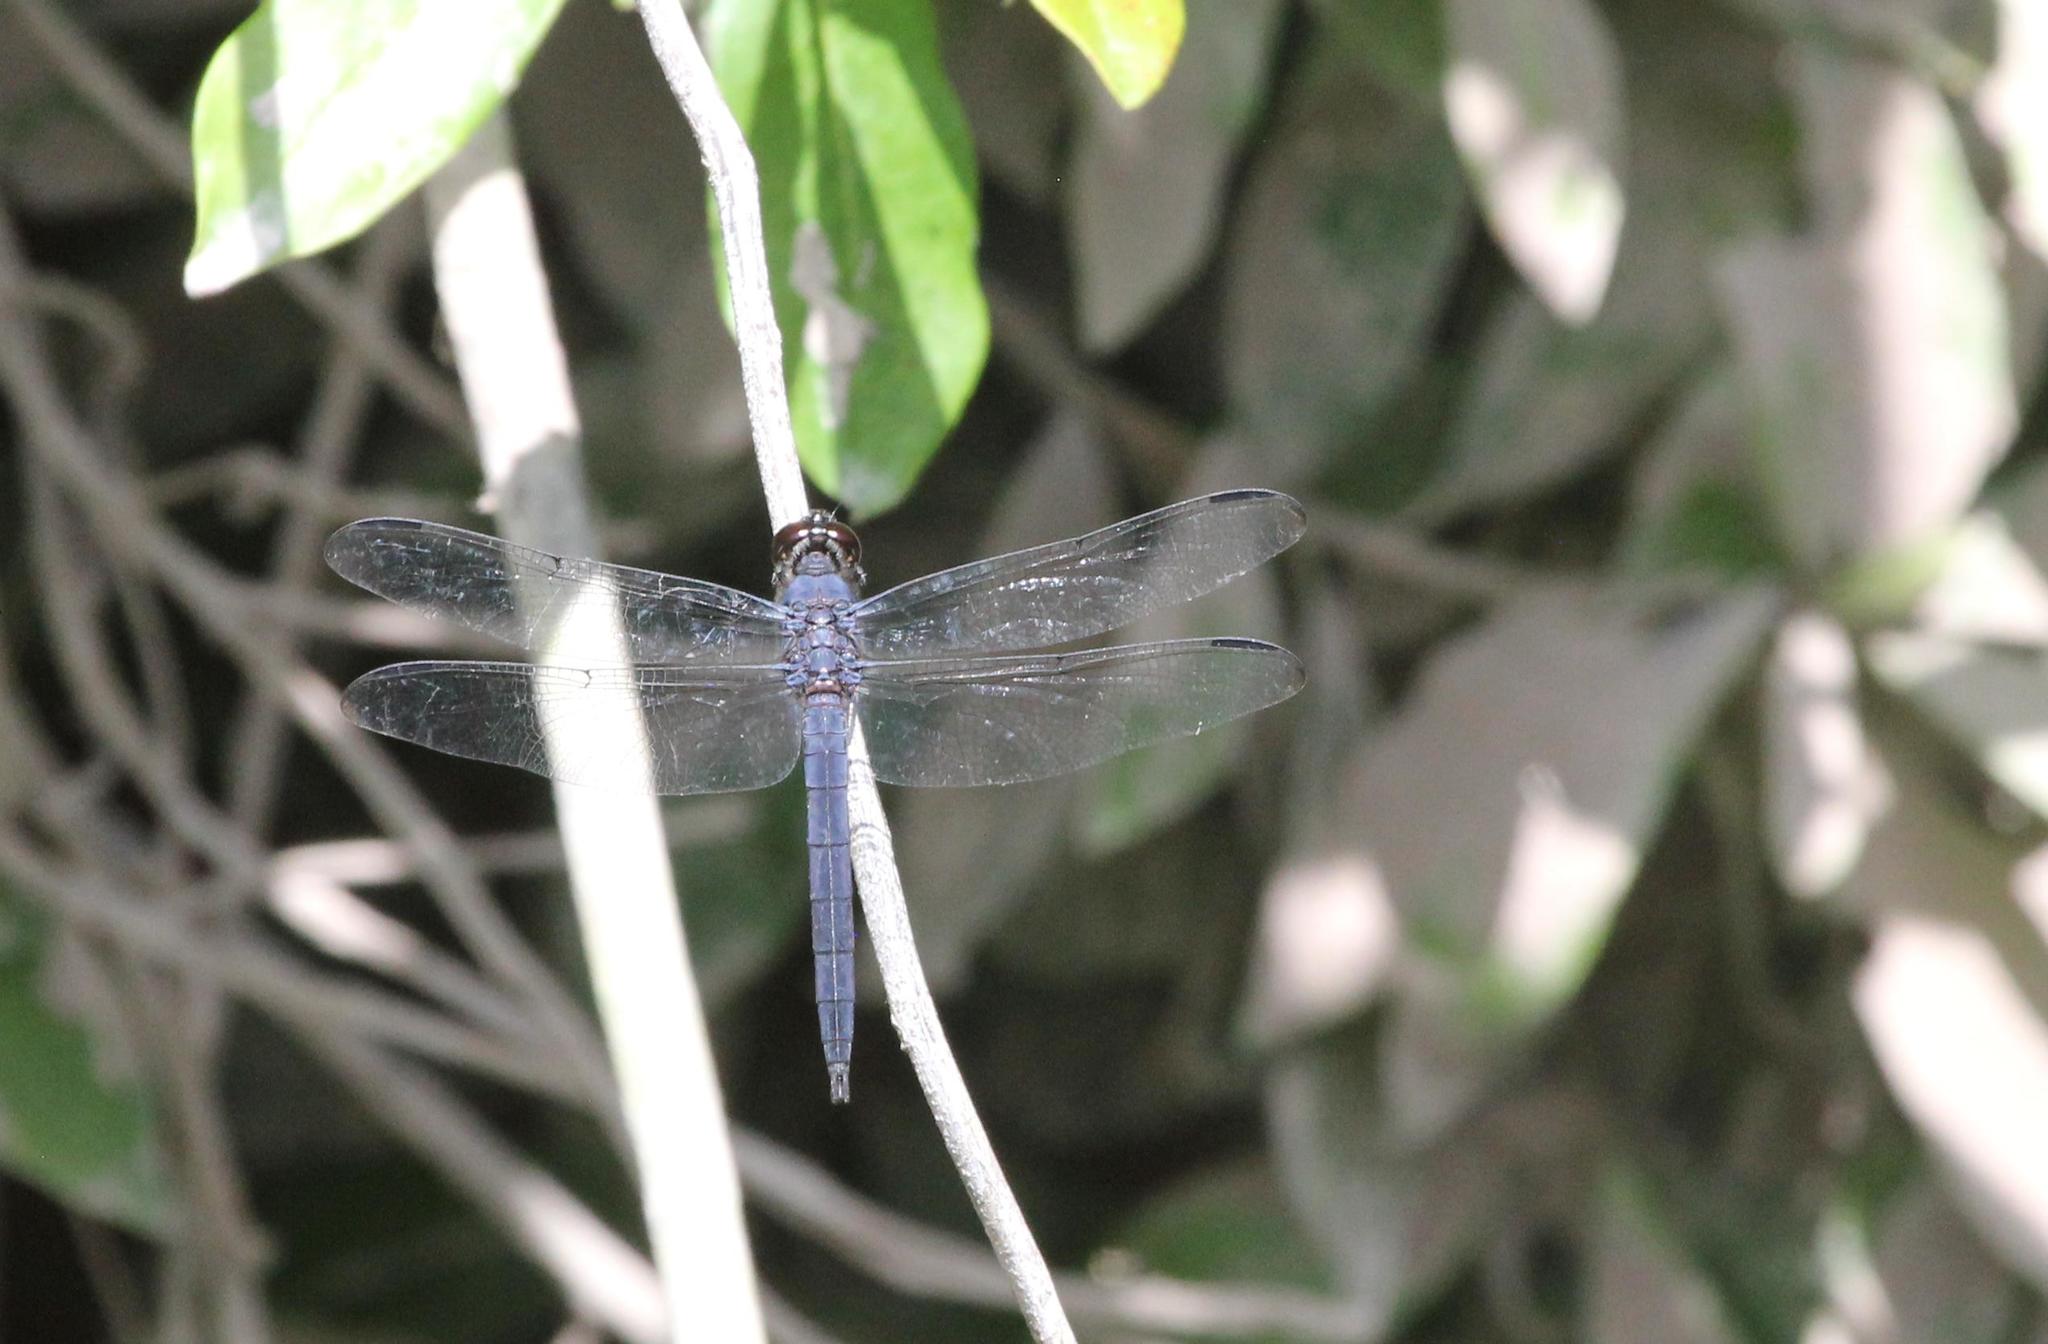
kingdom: Animalia
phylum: Arthropoda
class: Insecta
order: Odonata
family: Libellulidae
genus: Libellula
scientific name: Libellula incesta
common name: Slaty skimmer
